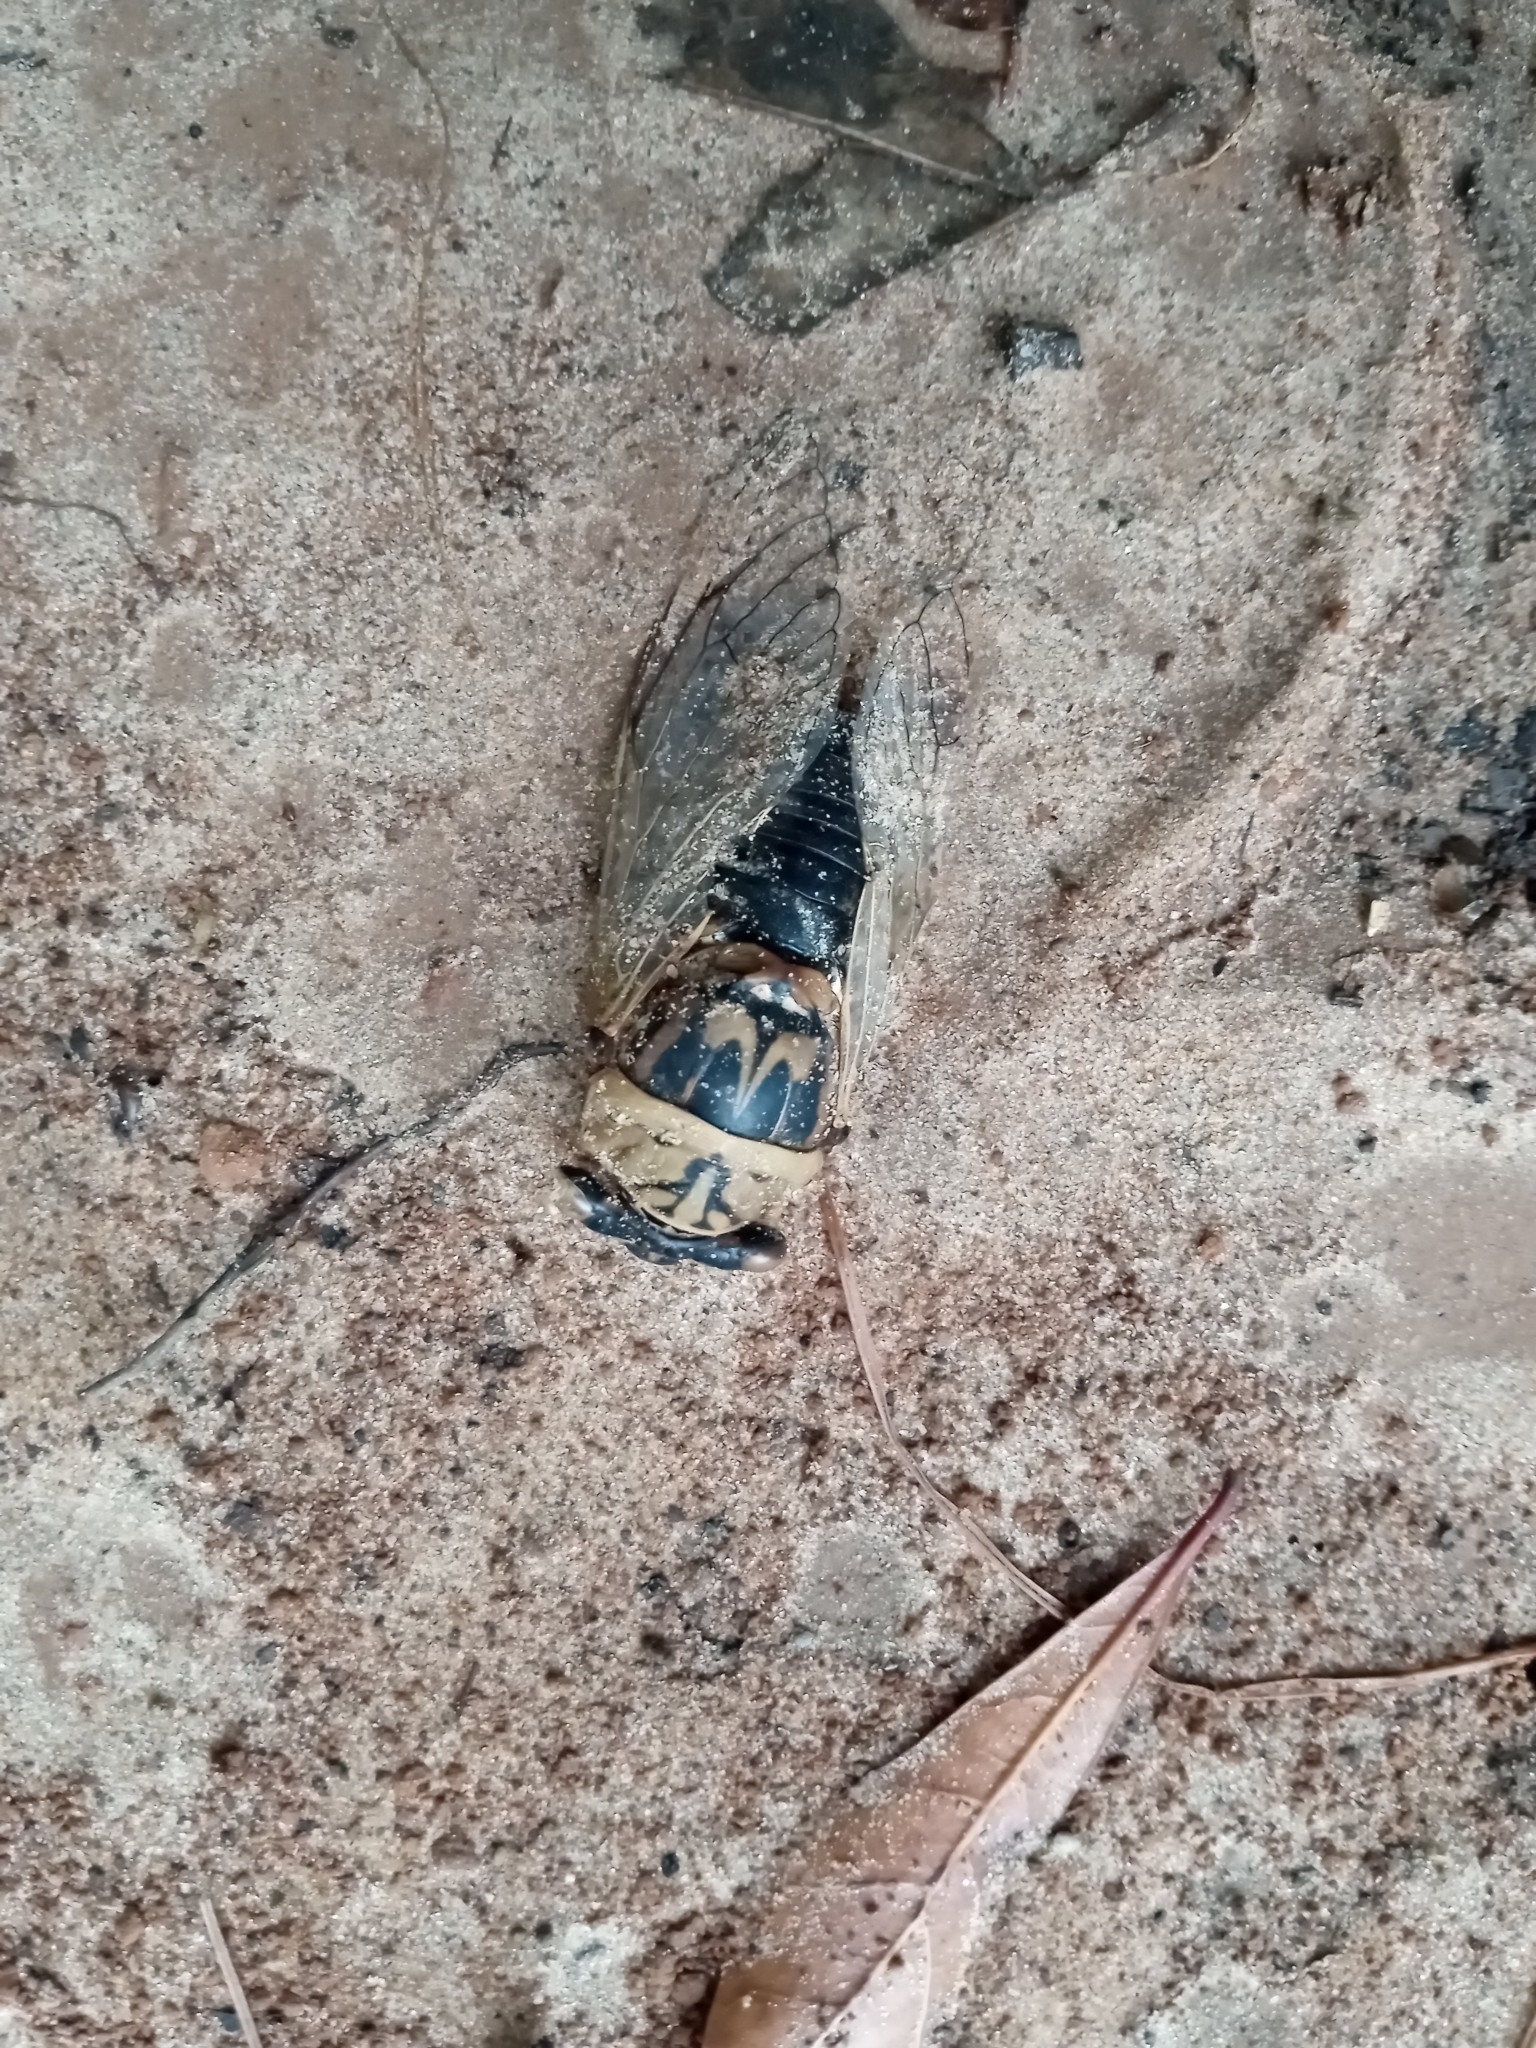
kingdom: Animalia
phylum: Arthropoda
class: Insecta
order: Hemiptera
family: Cicadidae
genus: Megatibicen
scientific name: Megatibicen resh
